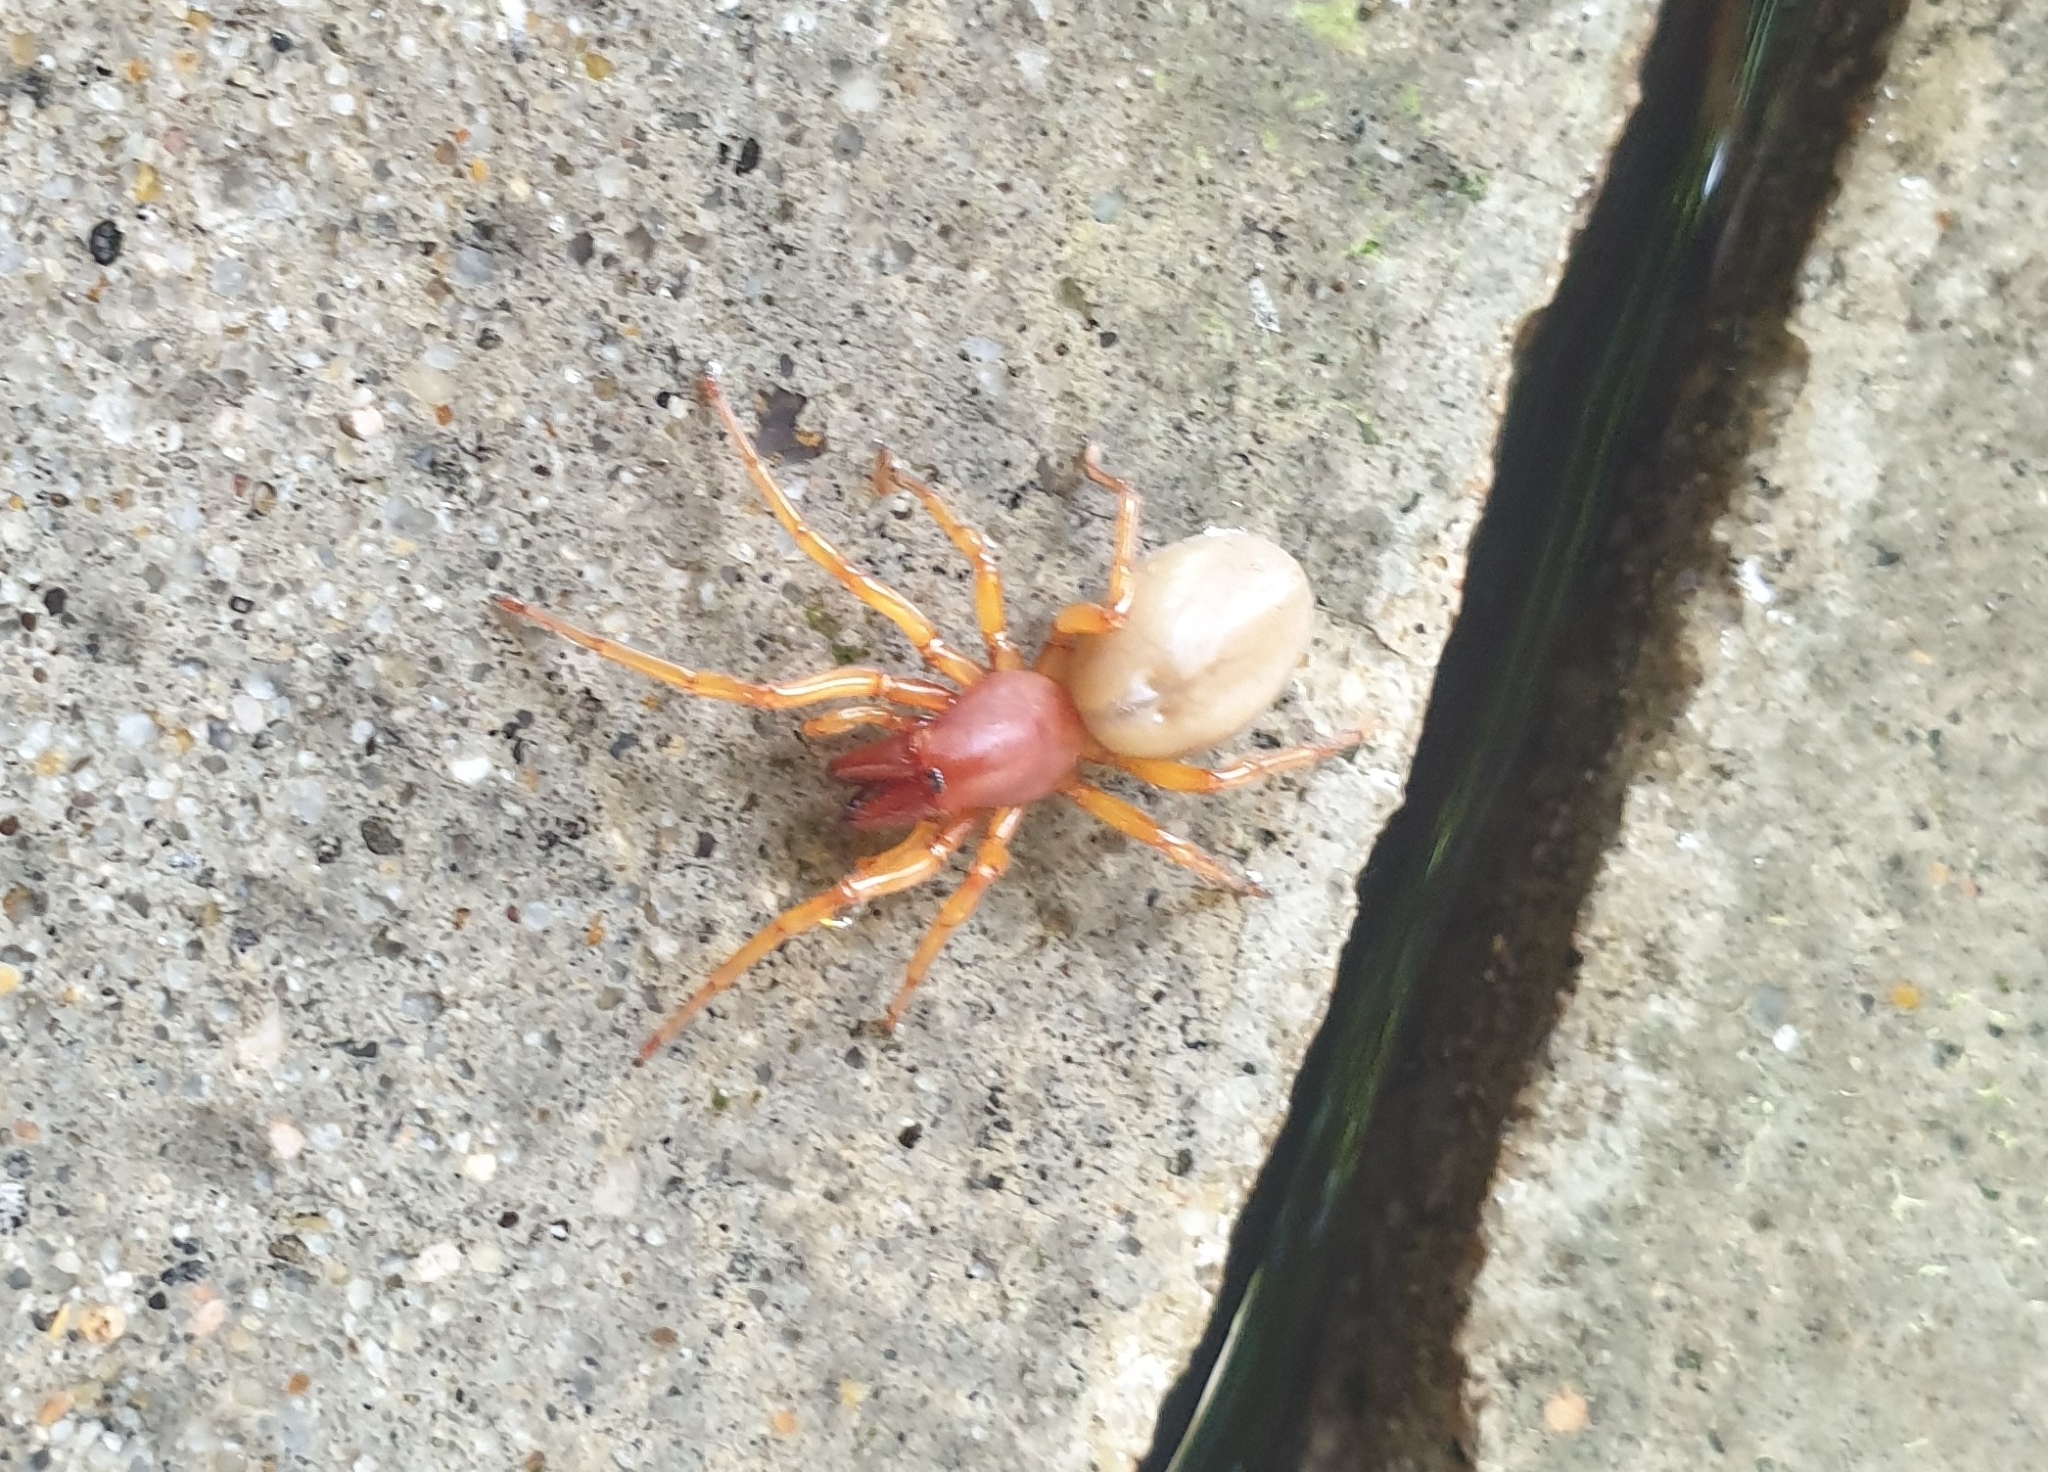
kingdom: Animalia
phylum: Arthropoda
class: Arachnida
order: Araneae
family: Dysderidae
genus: Dysdera
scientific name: Dysdera crocata
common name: Woodlouse spider
